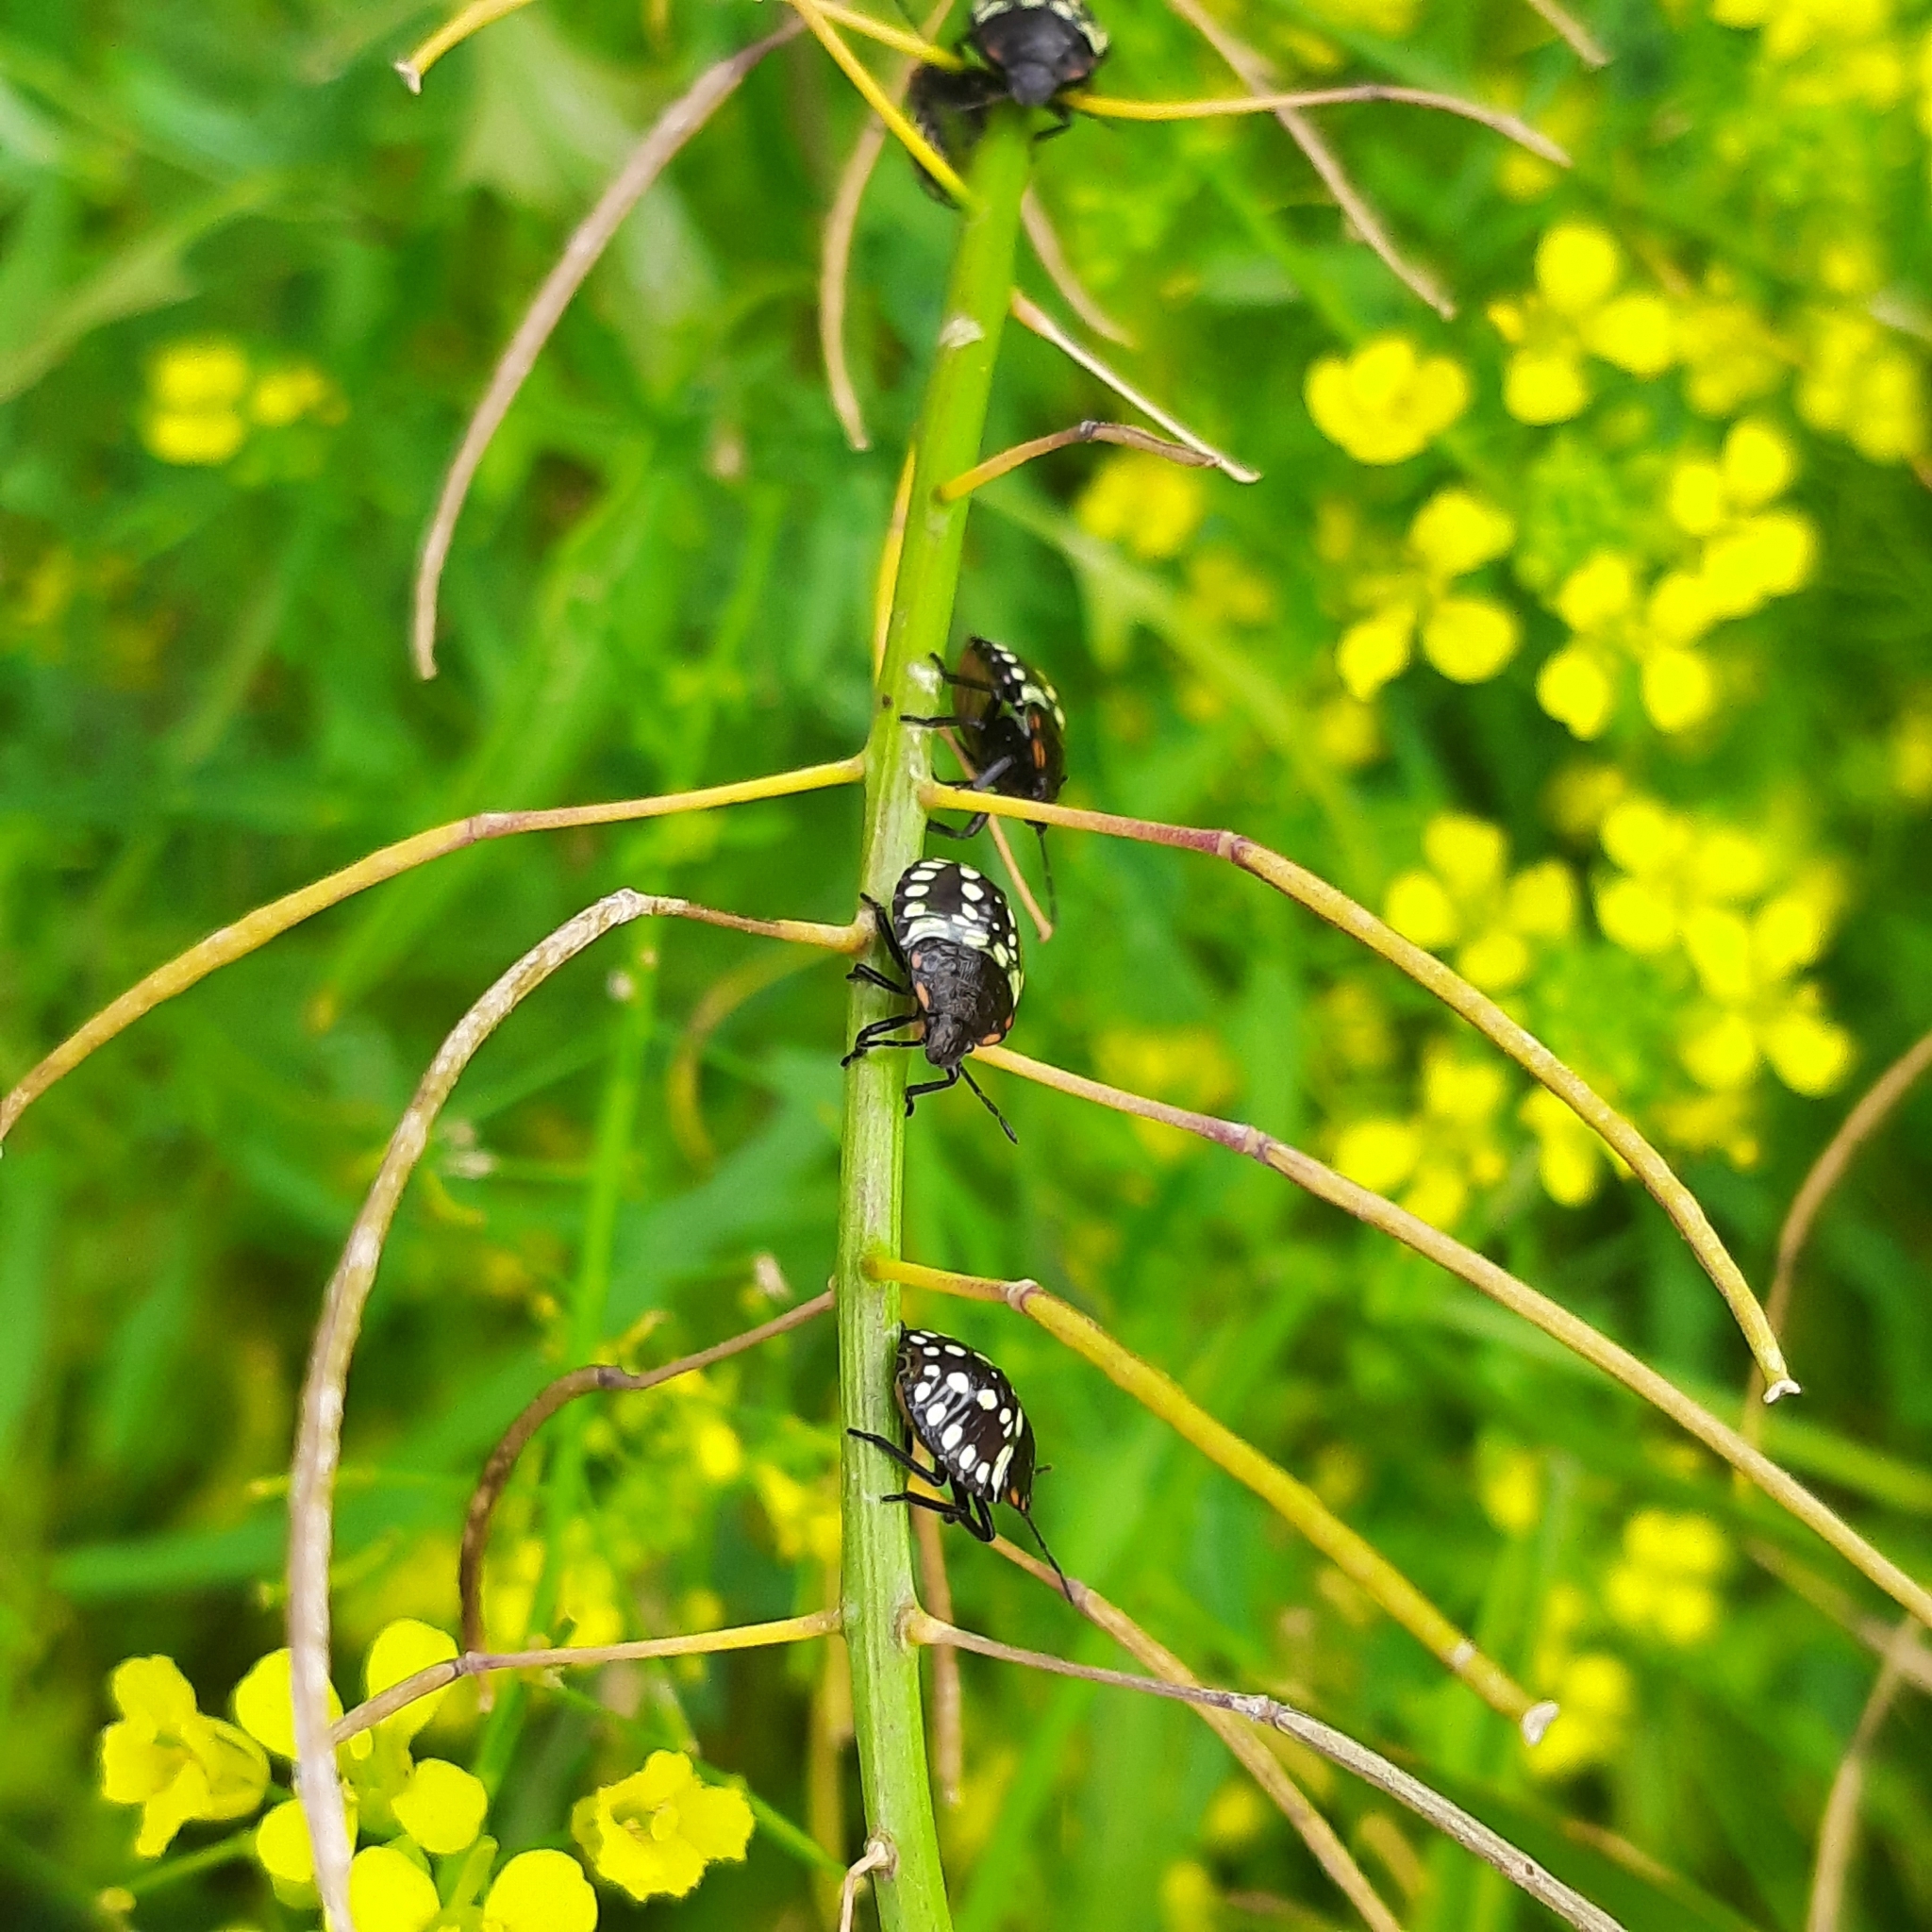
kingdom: Animalia
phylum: Arthropoda
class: Insecta
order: Hemiptera
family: Pentatomidae
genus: Nezara
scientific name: Nezara viridula
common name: Southern green stink bug
